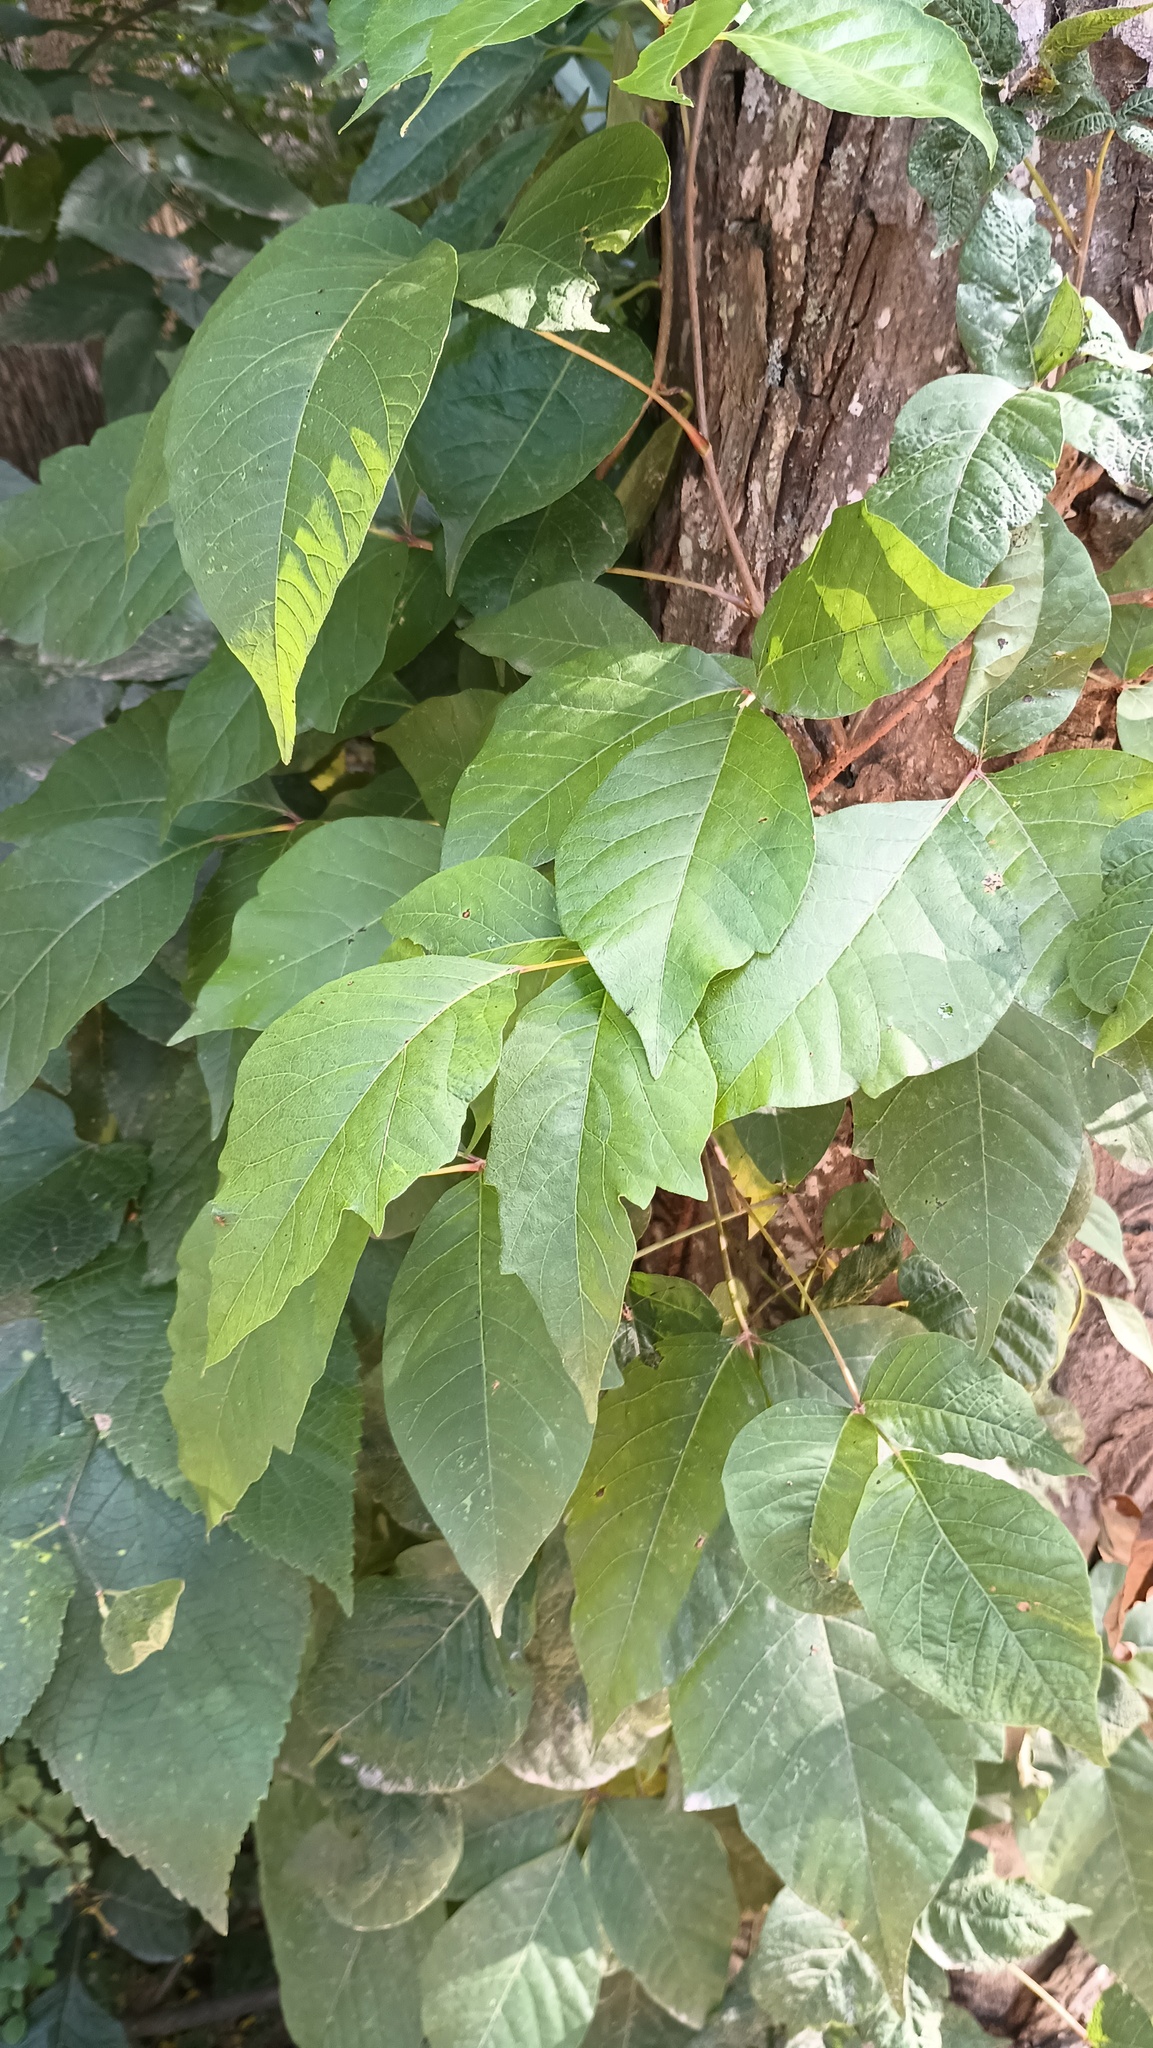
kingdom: Plantae
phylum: Tracheophyta
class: Magnoliopsida
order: Sapindales
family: Anacardiaceae
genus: Toxicodendron
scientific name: Toxicodendron radicans
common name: Poison ivy
